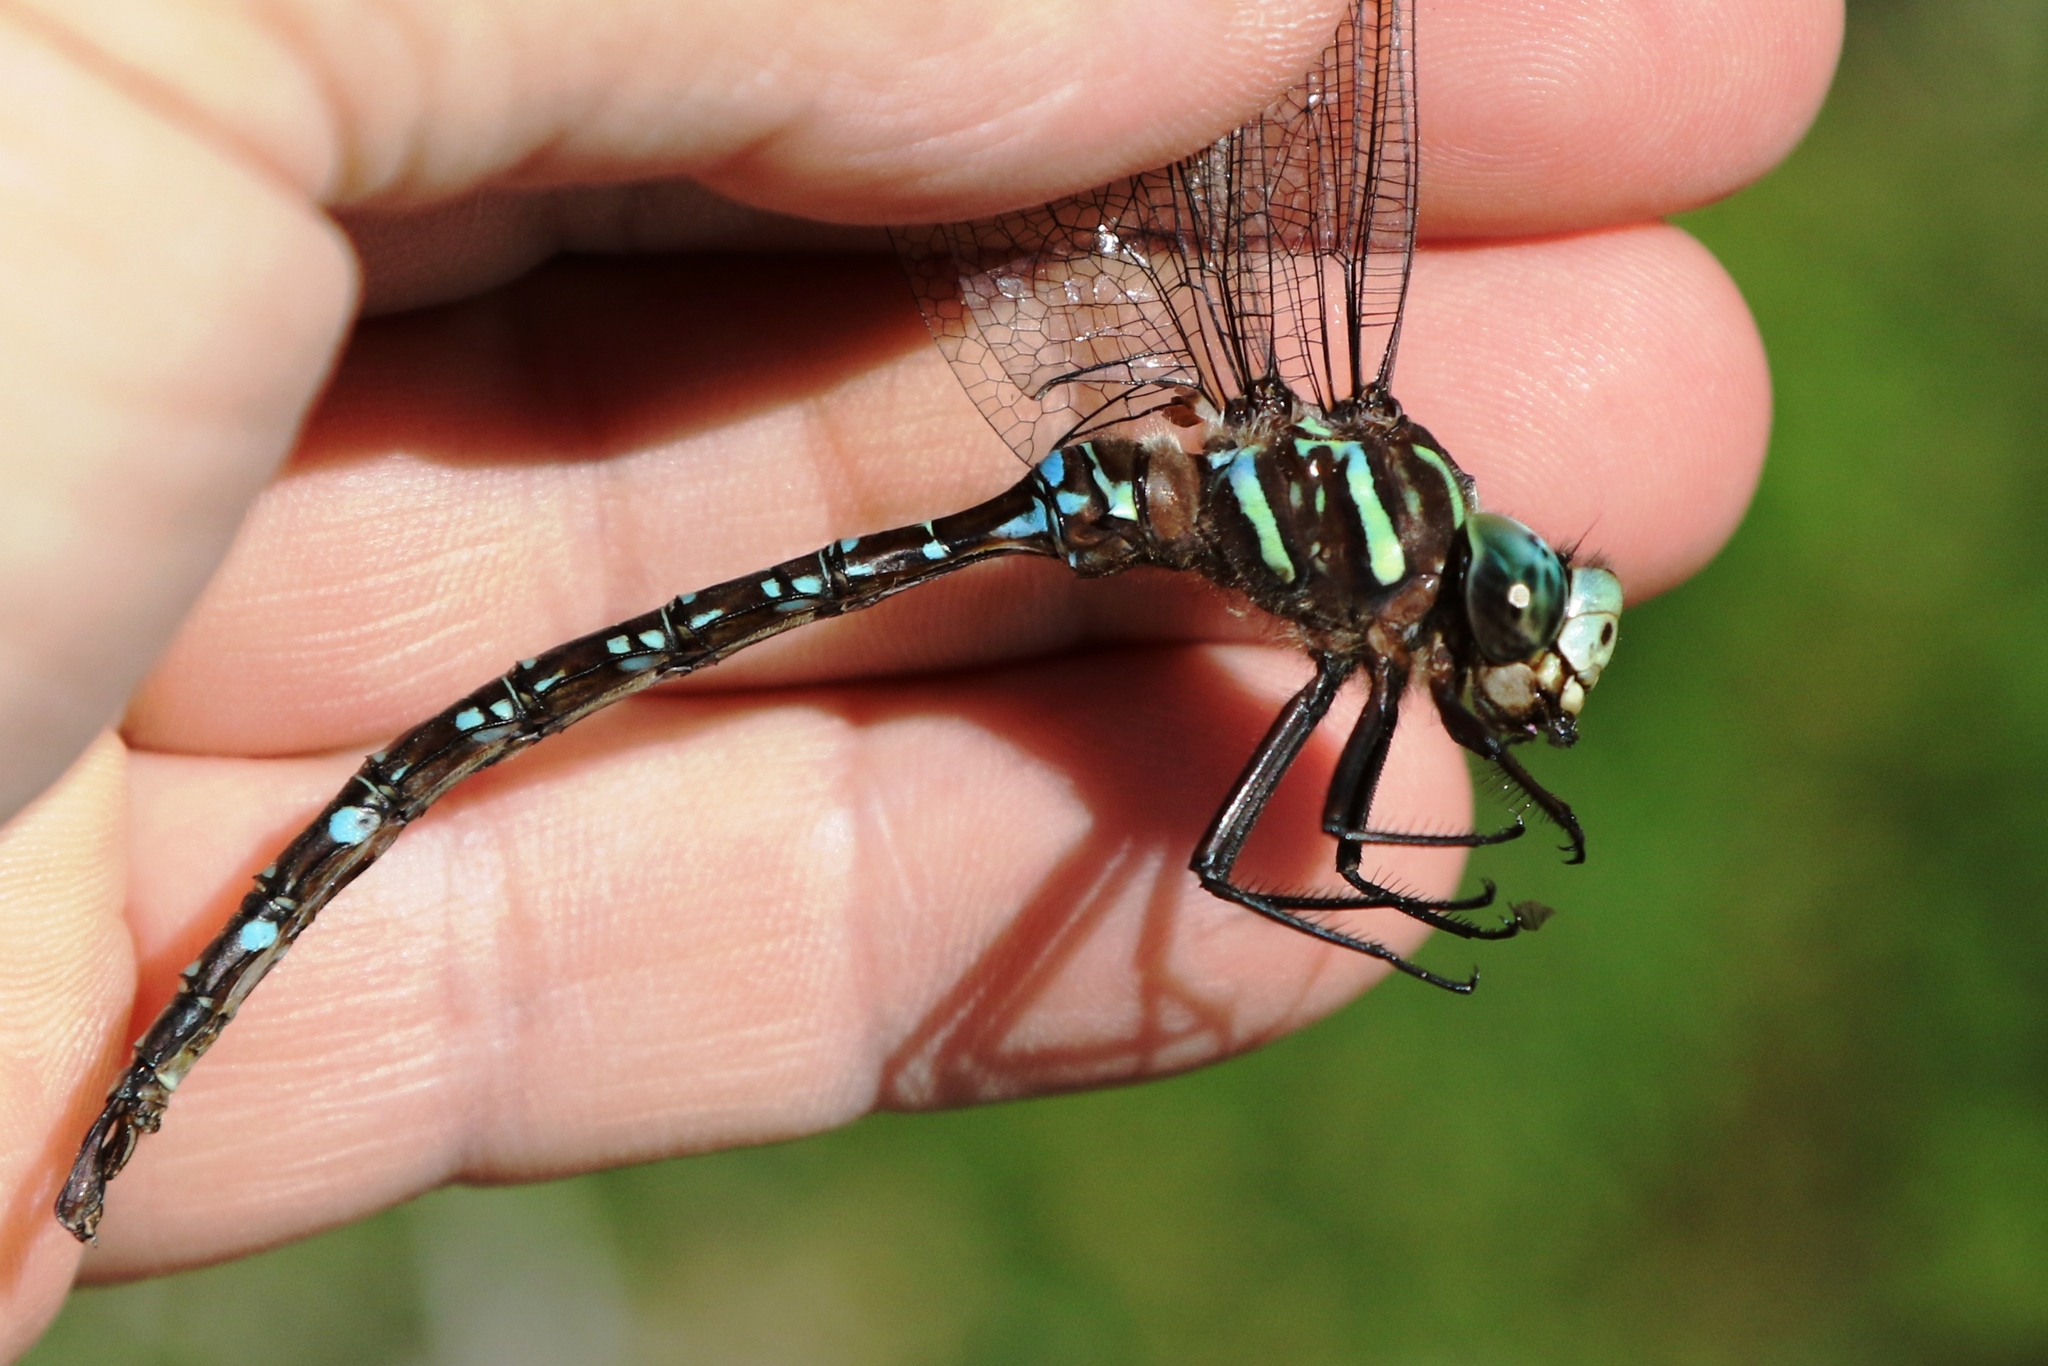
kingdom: Animalia
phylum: Arthropoda
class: Insecta
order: Odonata
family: Aeshnidae
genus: Aeshna
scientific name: Aeshna umbrosa
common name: Shadow darner
